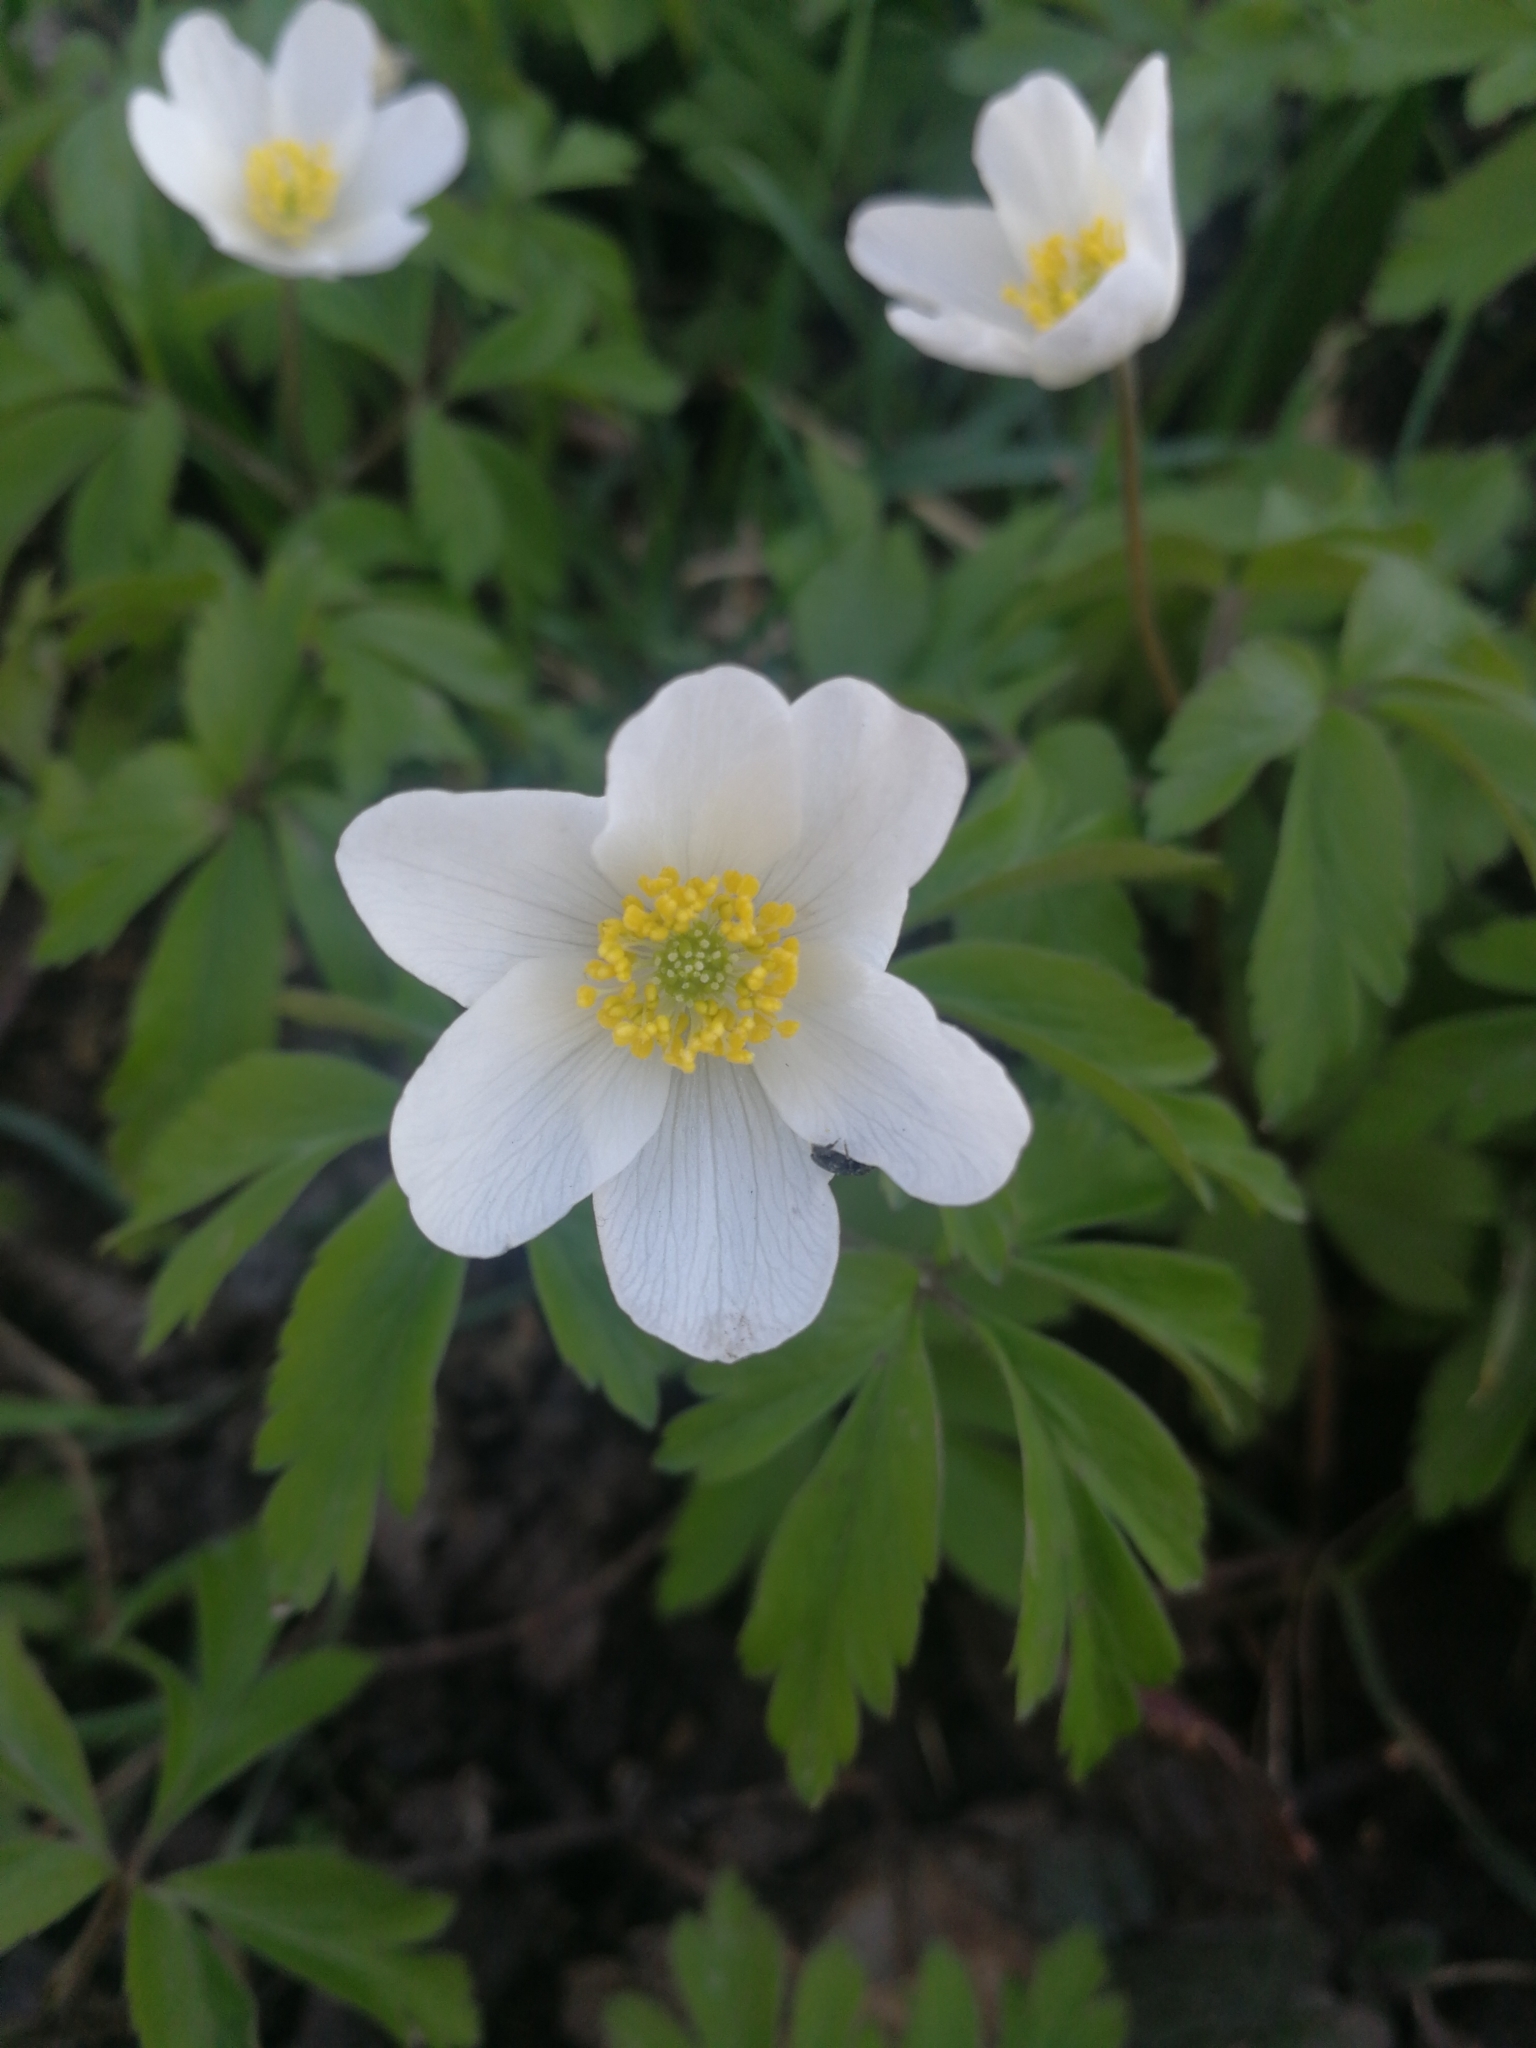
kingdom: Plantae
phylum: Tracheophyta
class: Magnoliopsida
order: Ranunculales
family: Ranunculaceae
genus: Anemone
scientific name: Anemone nemorosa
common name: Wood anemone
